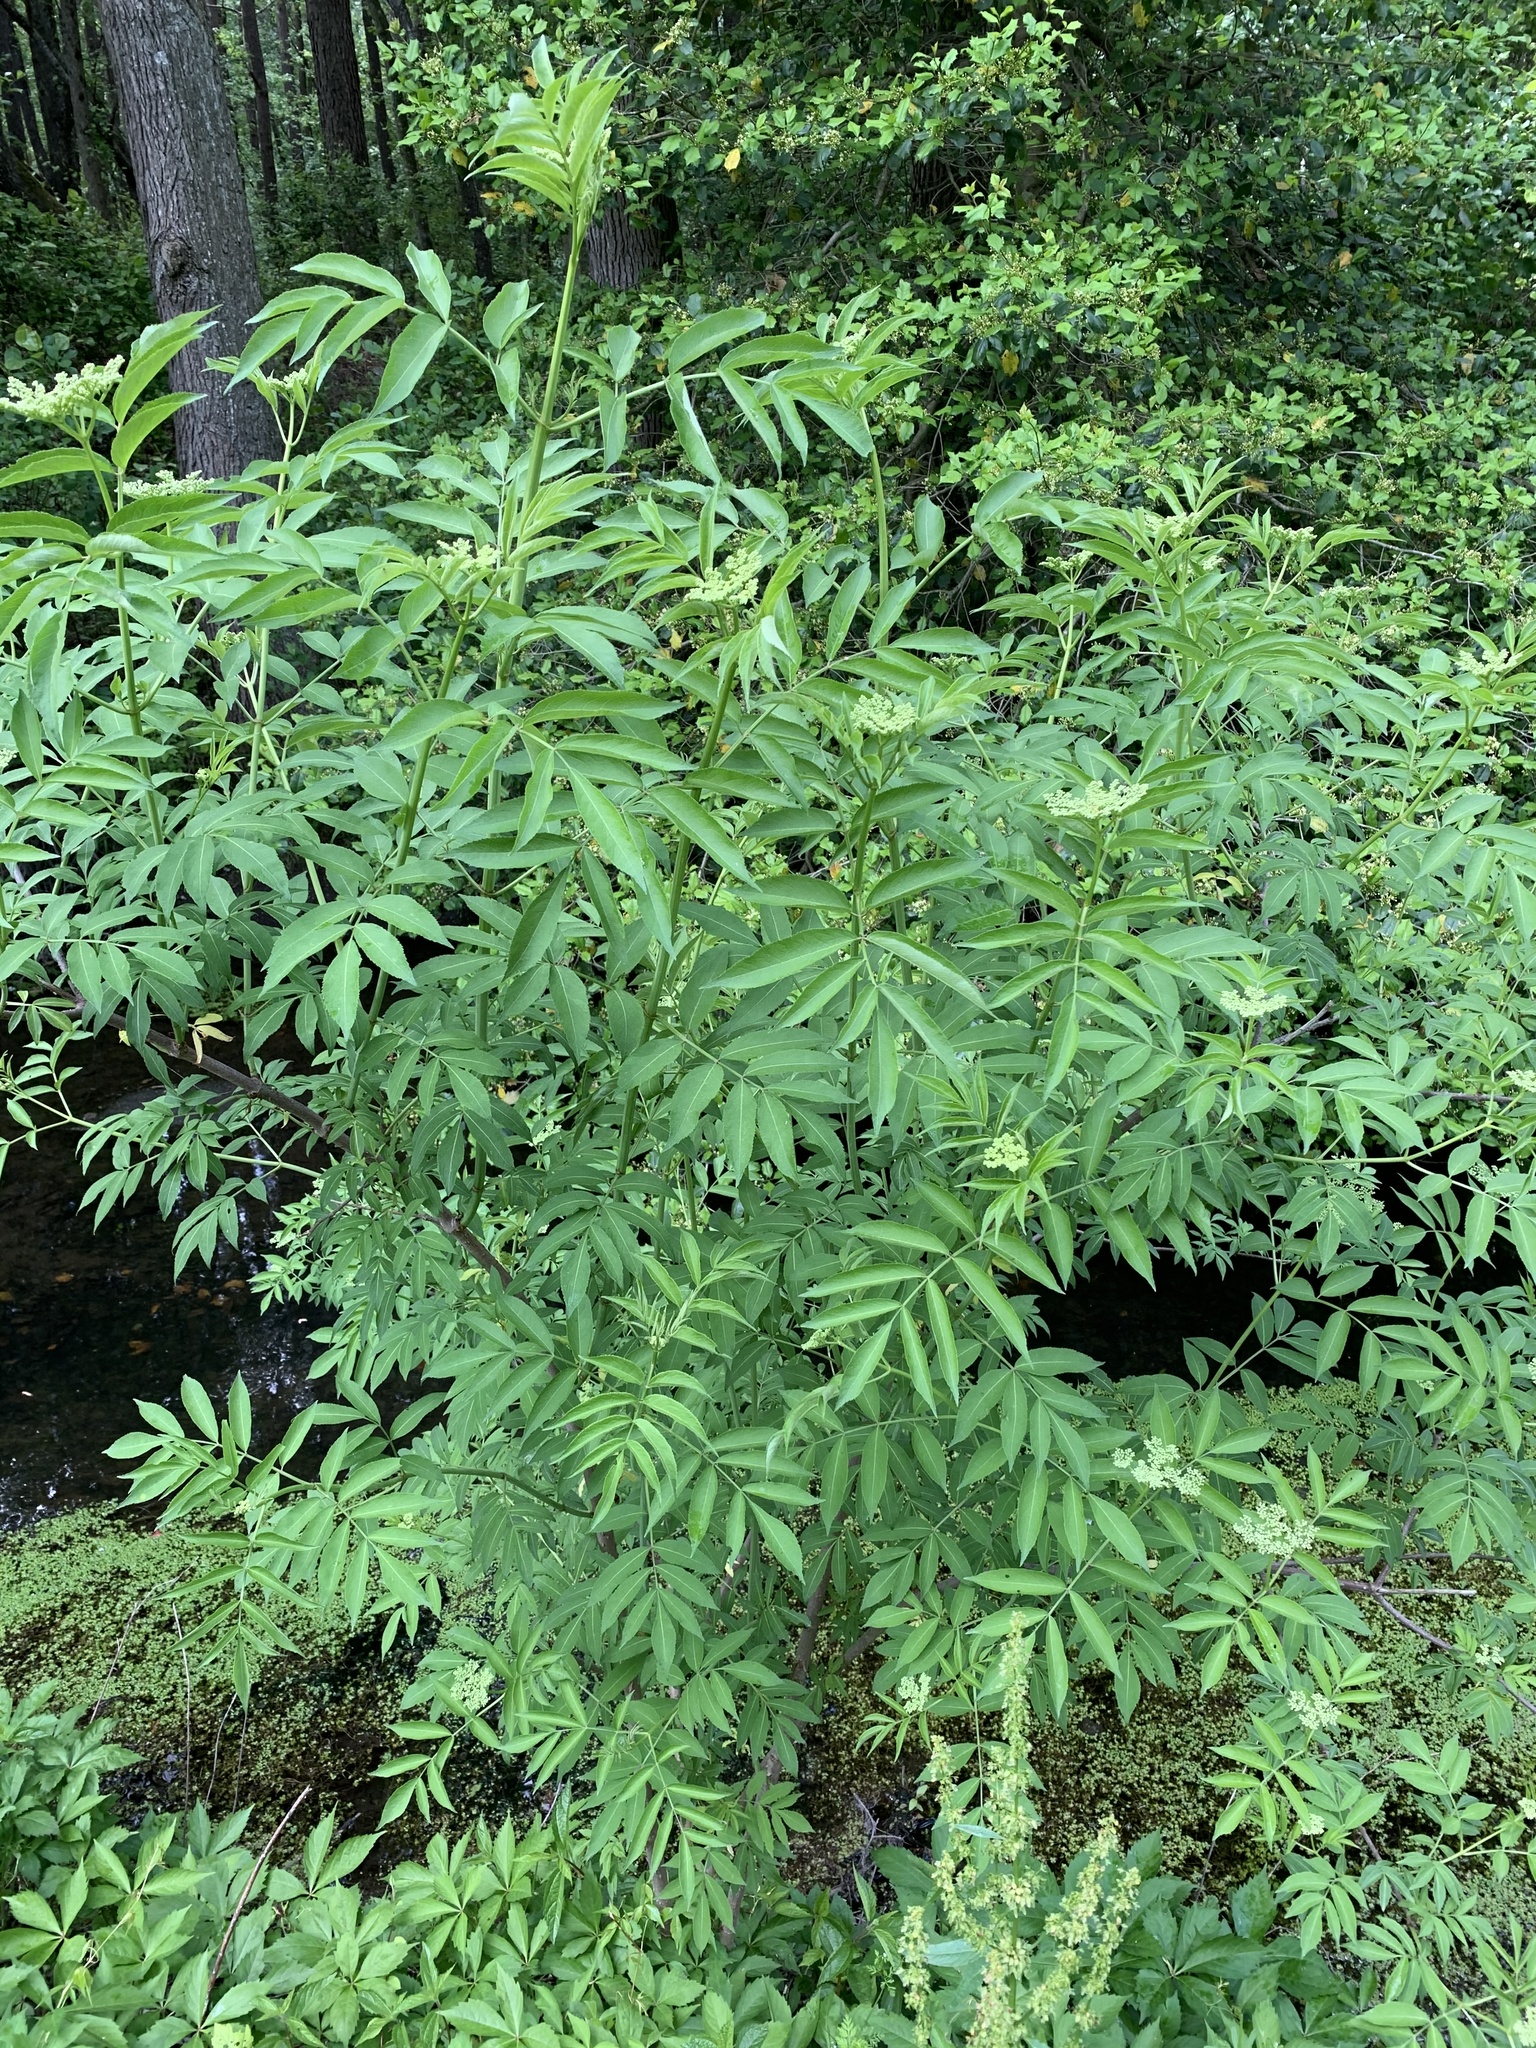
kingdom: Plantae
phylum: Tracheophyta
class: Magnoliopsida
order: Dipsacales
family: Viburnaceae
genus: Sambucus
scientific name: Sambucus canadensis
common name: American elder
